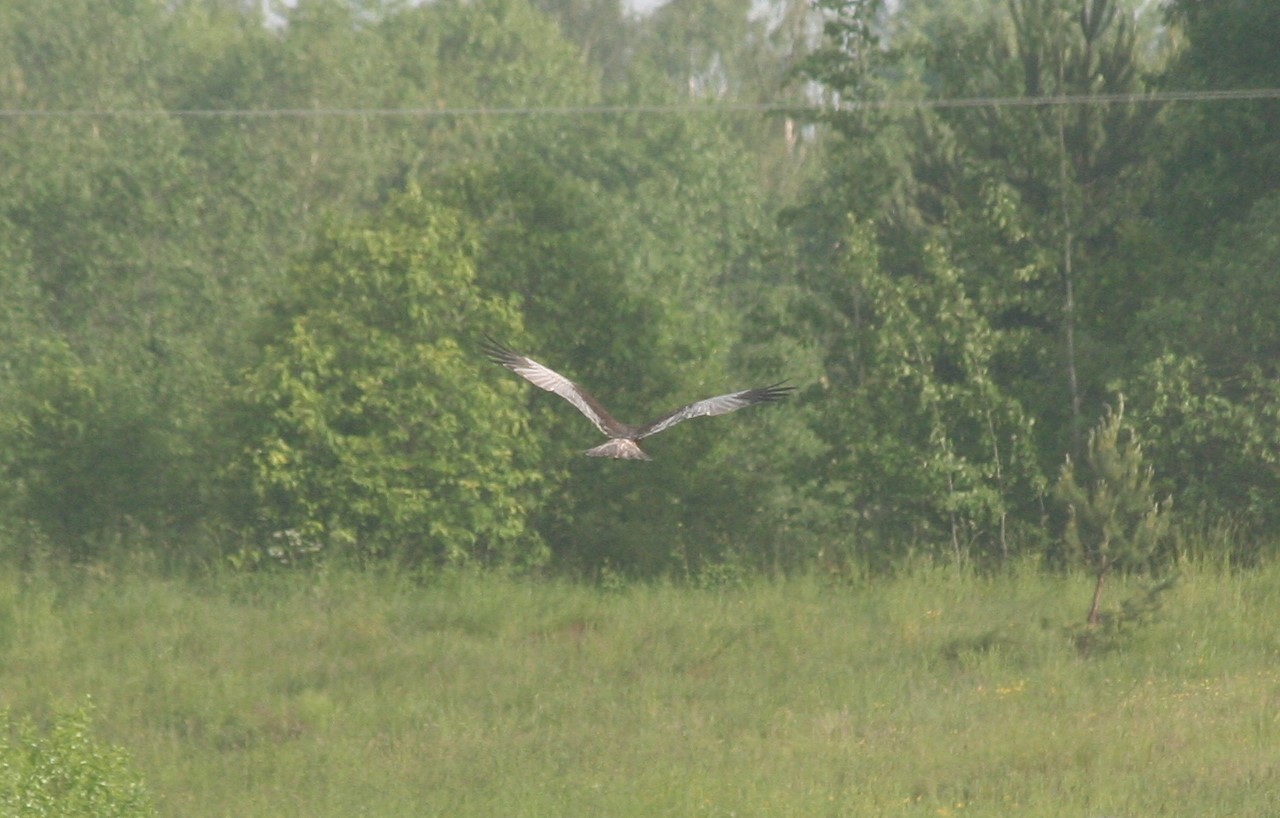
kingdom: Animalia
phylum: Chordata
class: Aves
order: Accipitriformes
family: Accipitridae
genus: Circus
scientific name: Circus aeruginosus
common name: Western marsh harrier
